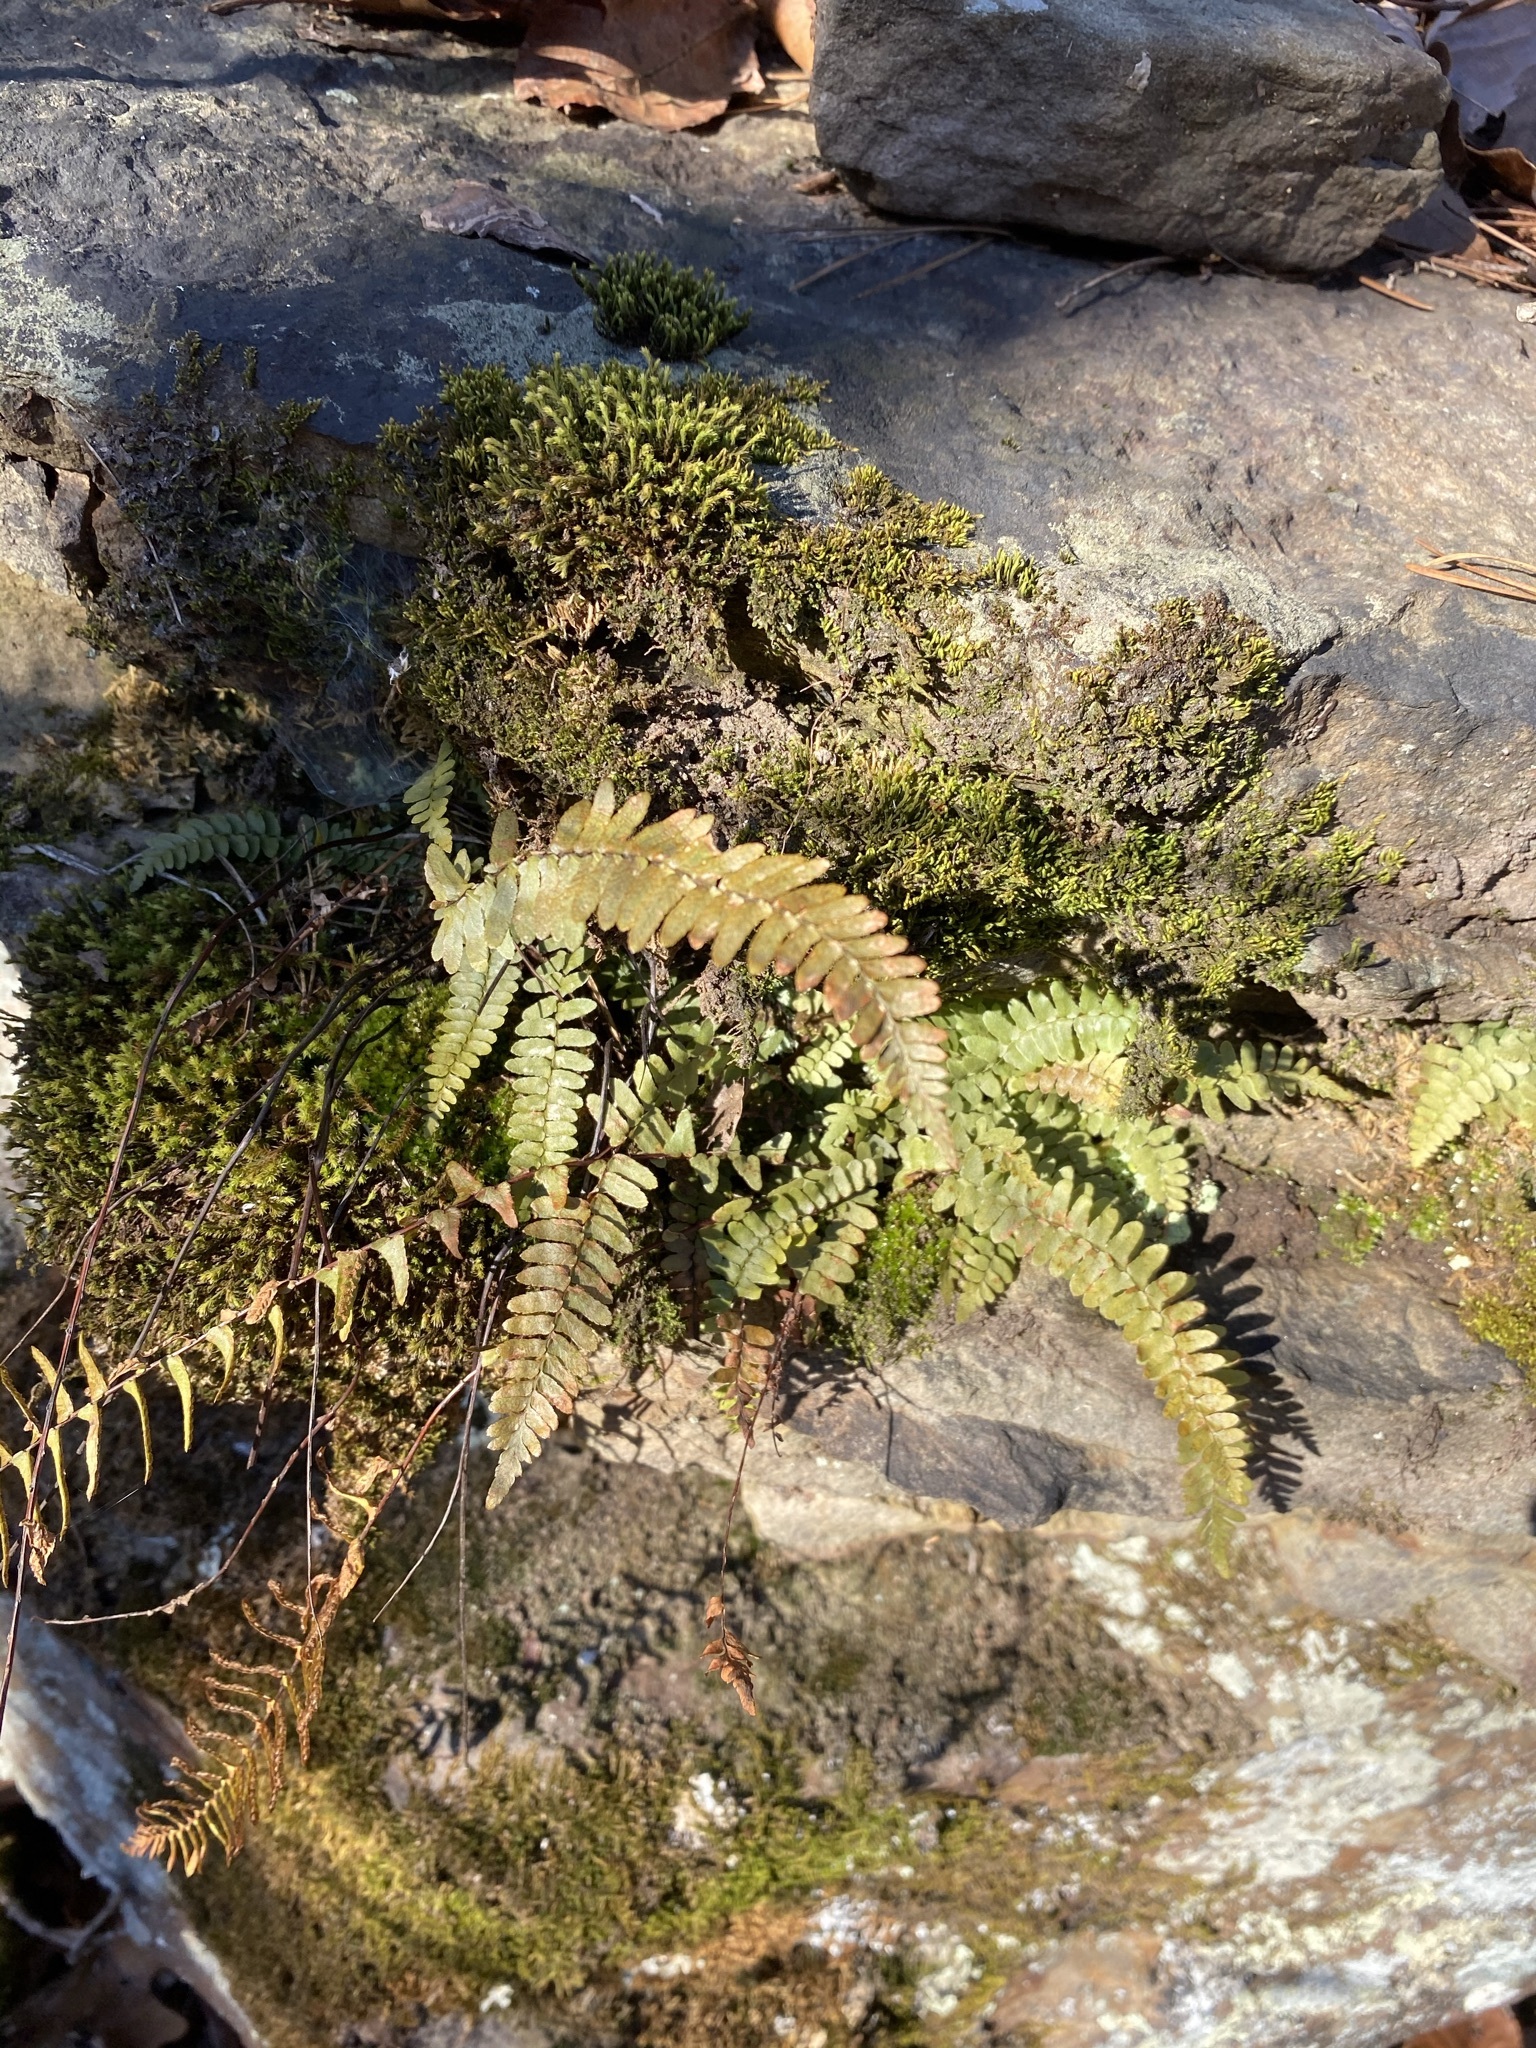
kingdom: Plantae
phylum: Tracheophyta
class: Polypodiopsida
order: Polypodiales
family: Aspleniaceae
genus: Asplenium
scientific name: Asplenium platyneuron
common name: Ebony spleenwort
